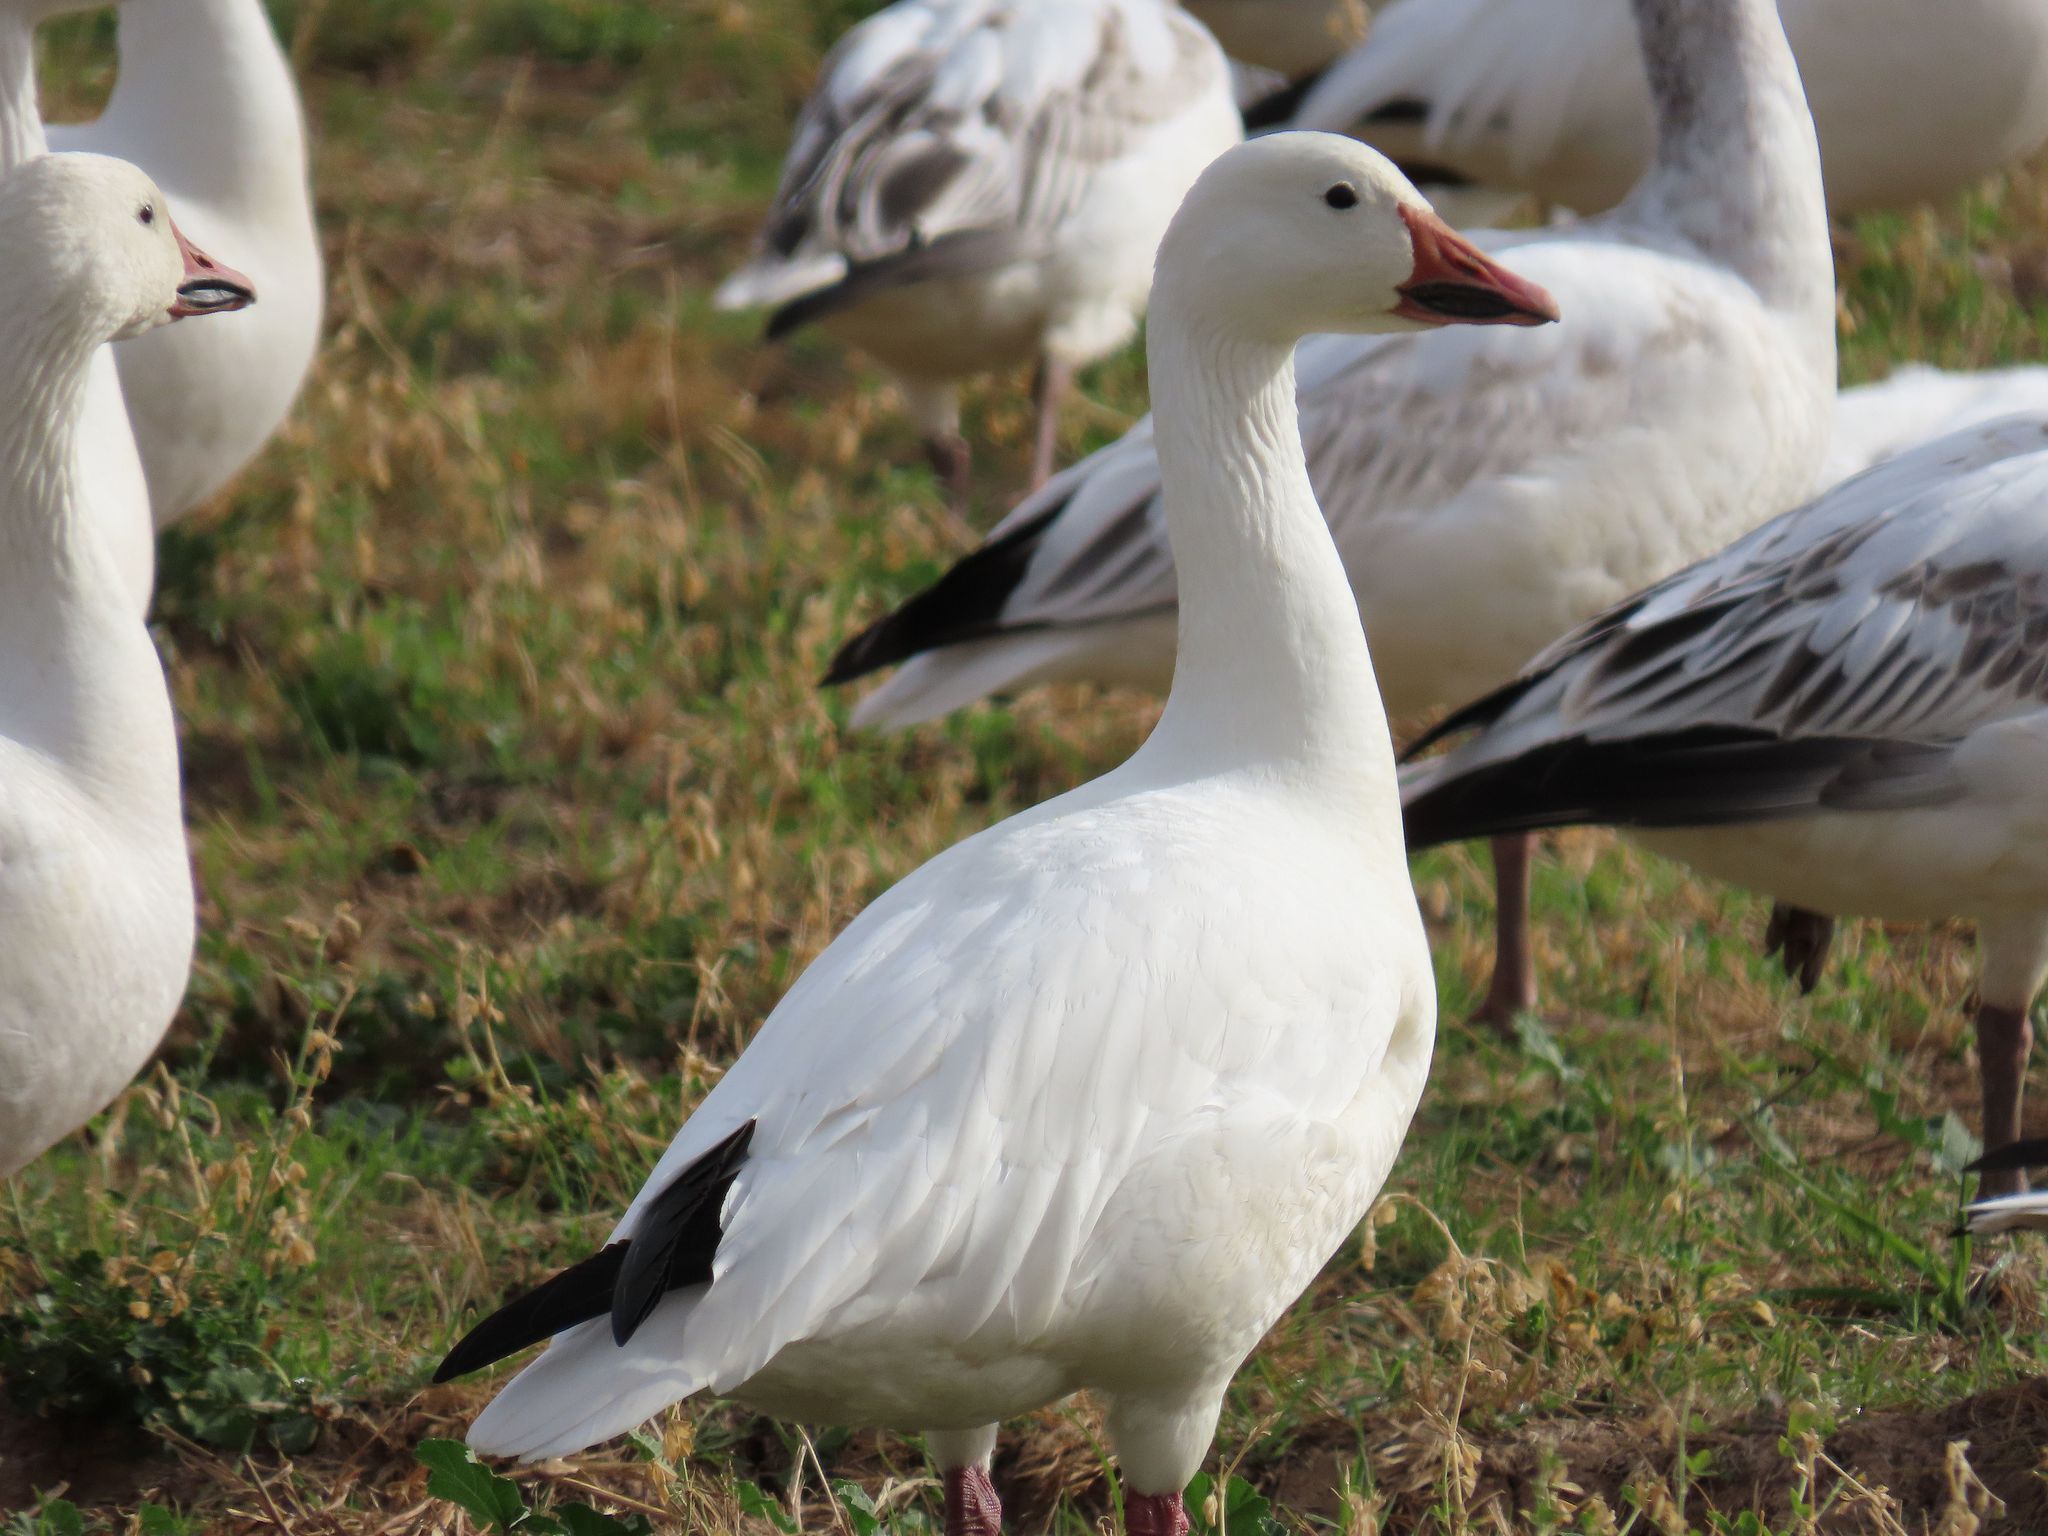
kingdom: Animalia
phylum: Chordata
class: Aves
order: Anseriformes
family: Anatidae
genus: Anser
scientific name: Anser caerulescens
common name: Snow goose
